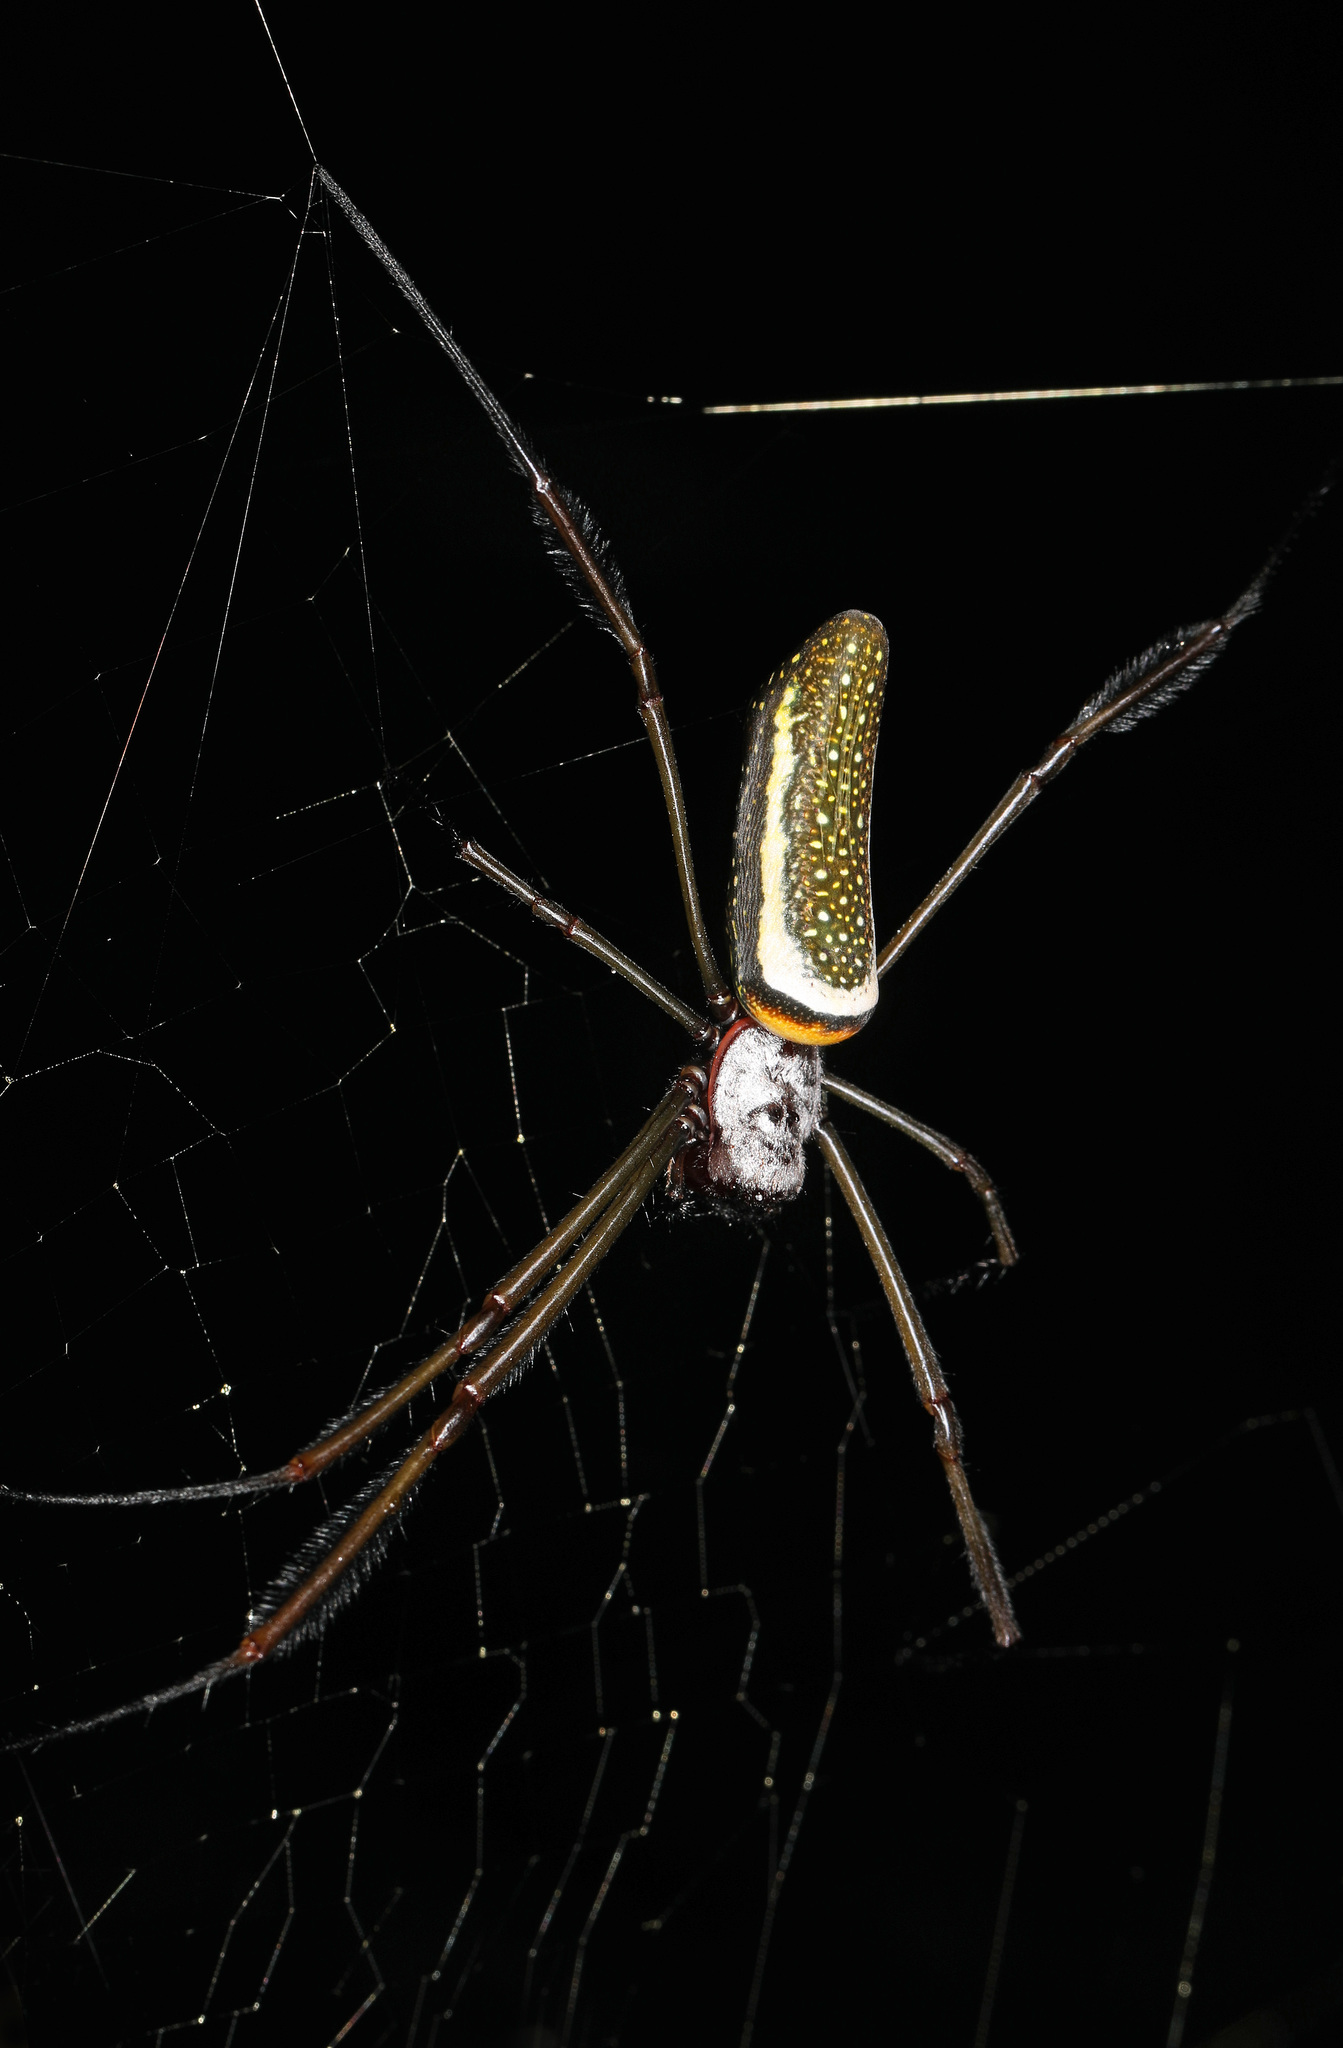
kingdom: Animalia
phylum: Arthropoda
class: Arachnida
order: Araneae
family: Araneidae
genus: Trichonephila
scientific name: Trichonephila clavipes
